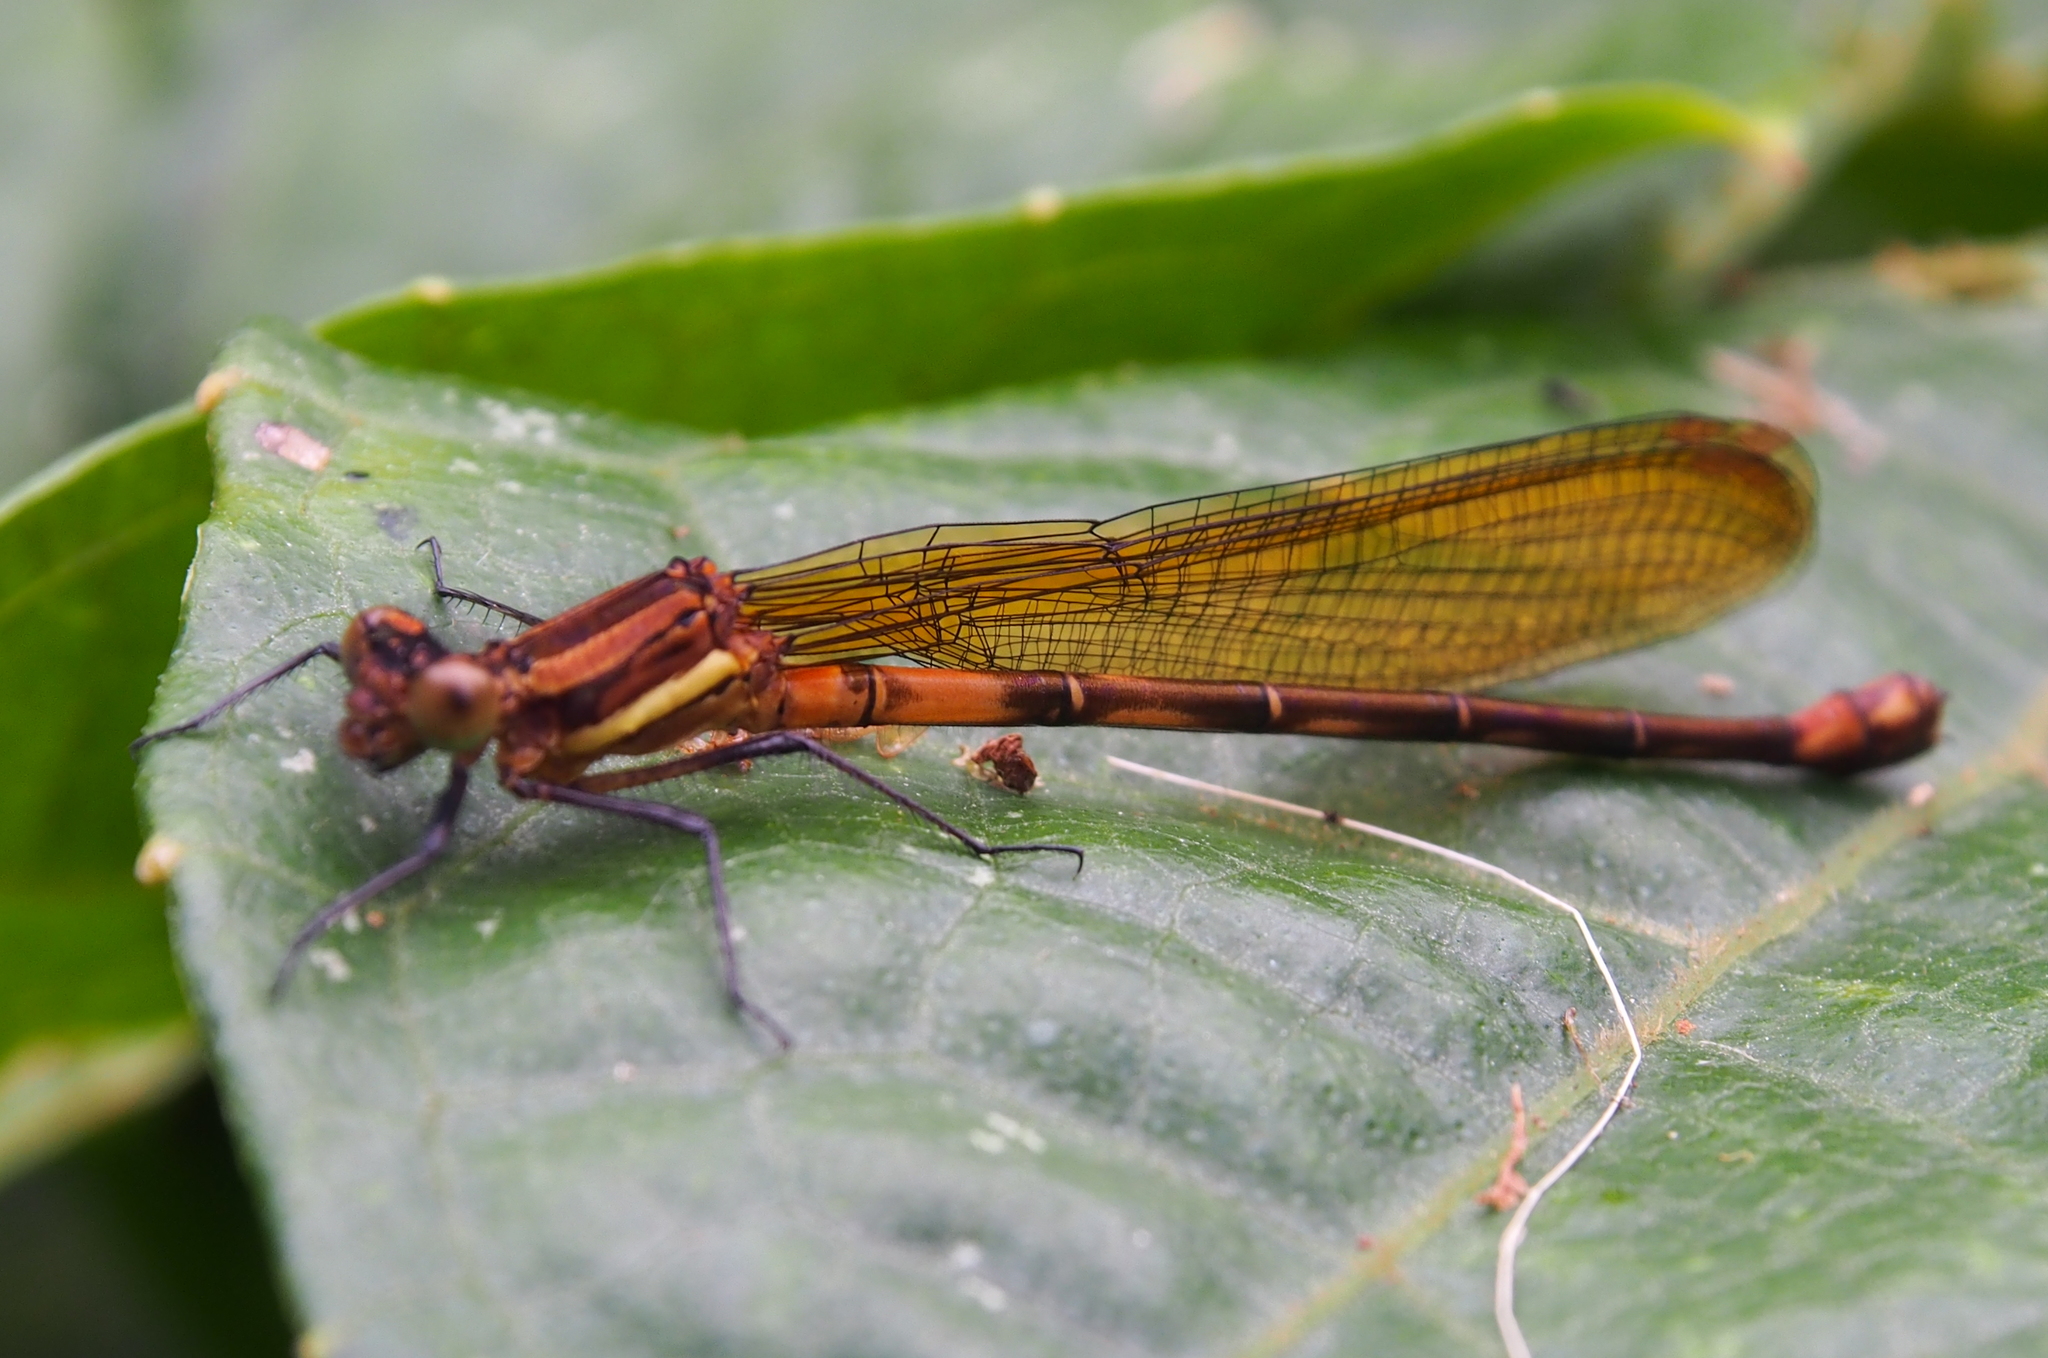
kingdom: Animalia
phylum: Arthropoda
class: Insecta
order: Odonata
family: Coenagrionidae
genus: Argia
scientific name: Argia terira
